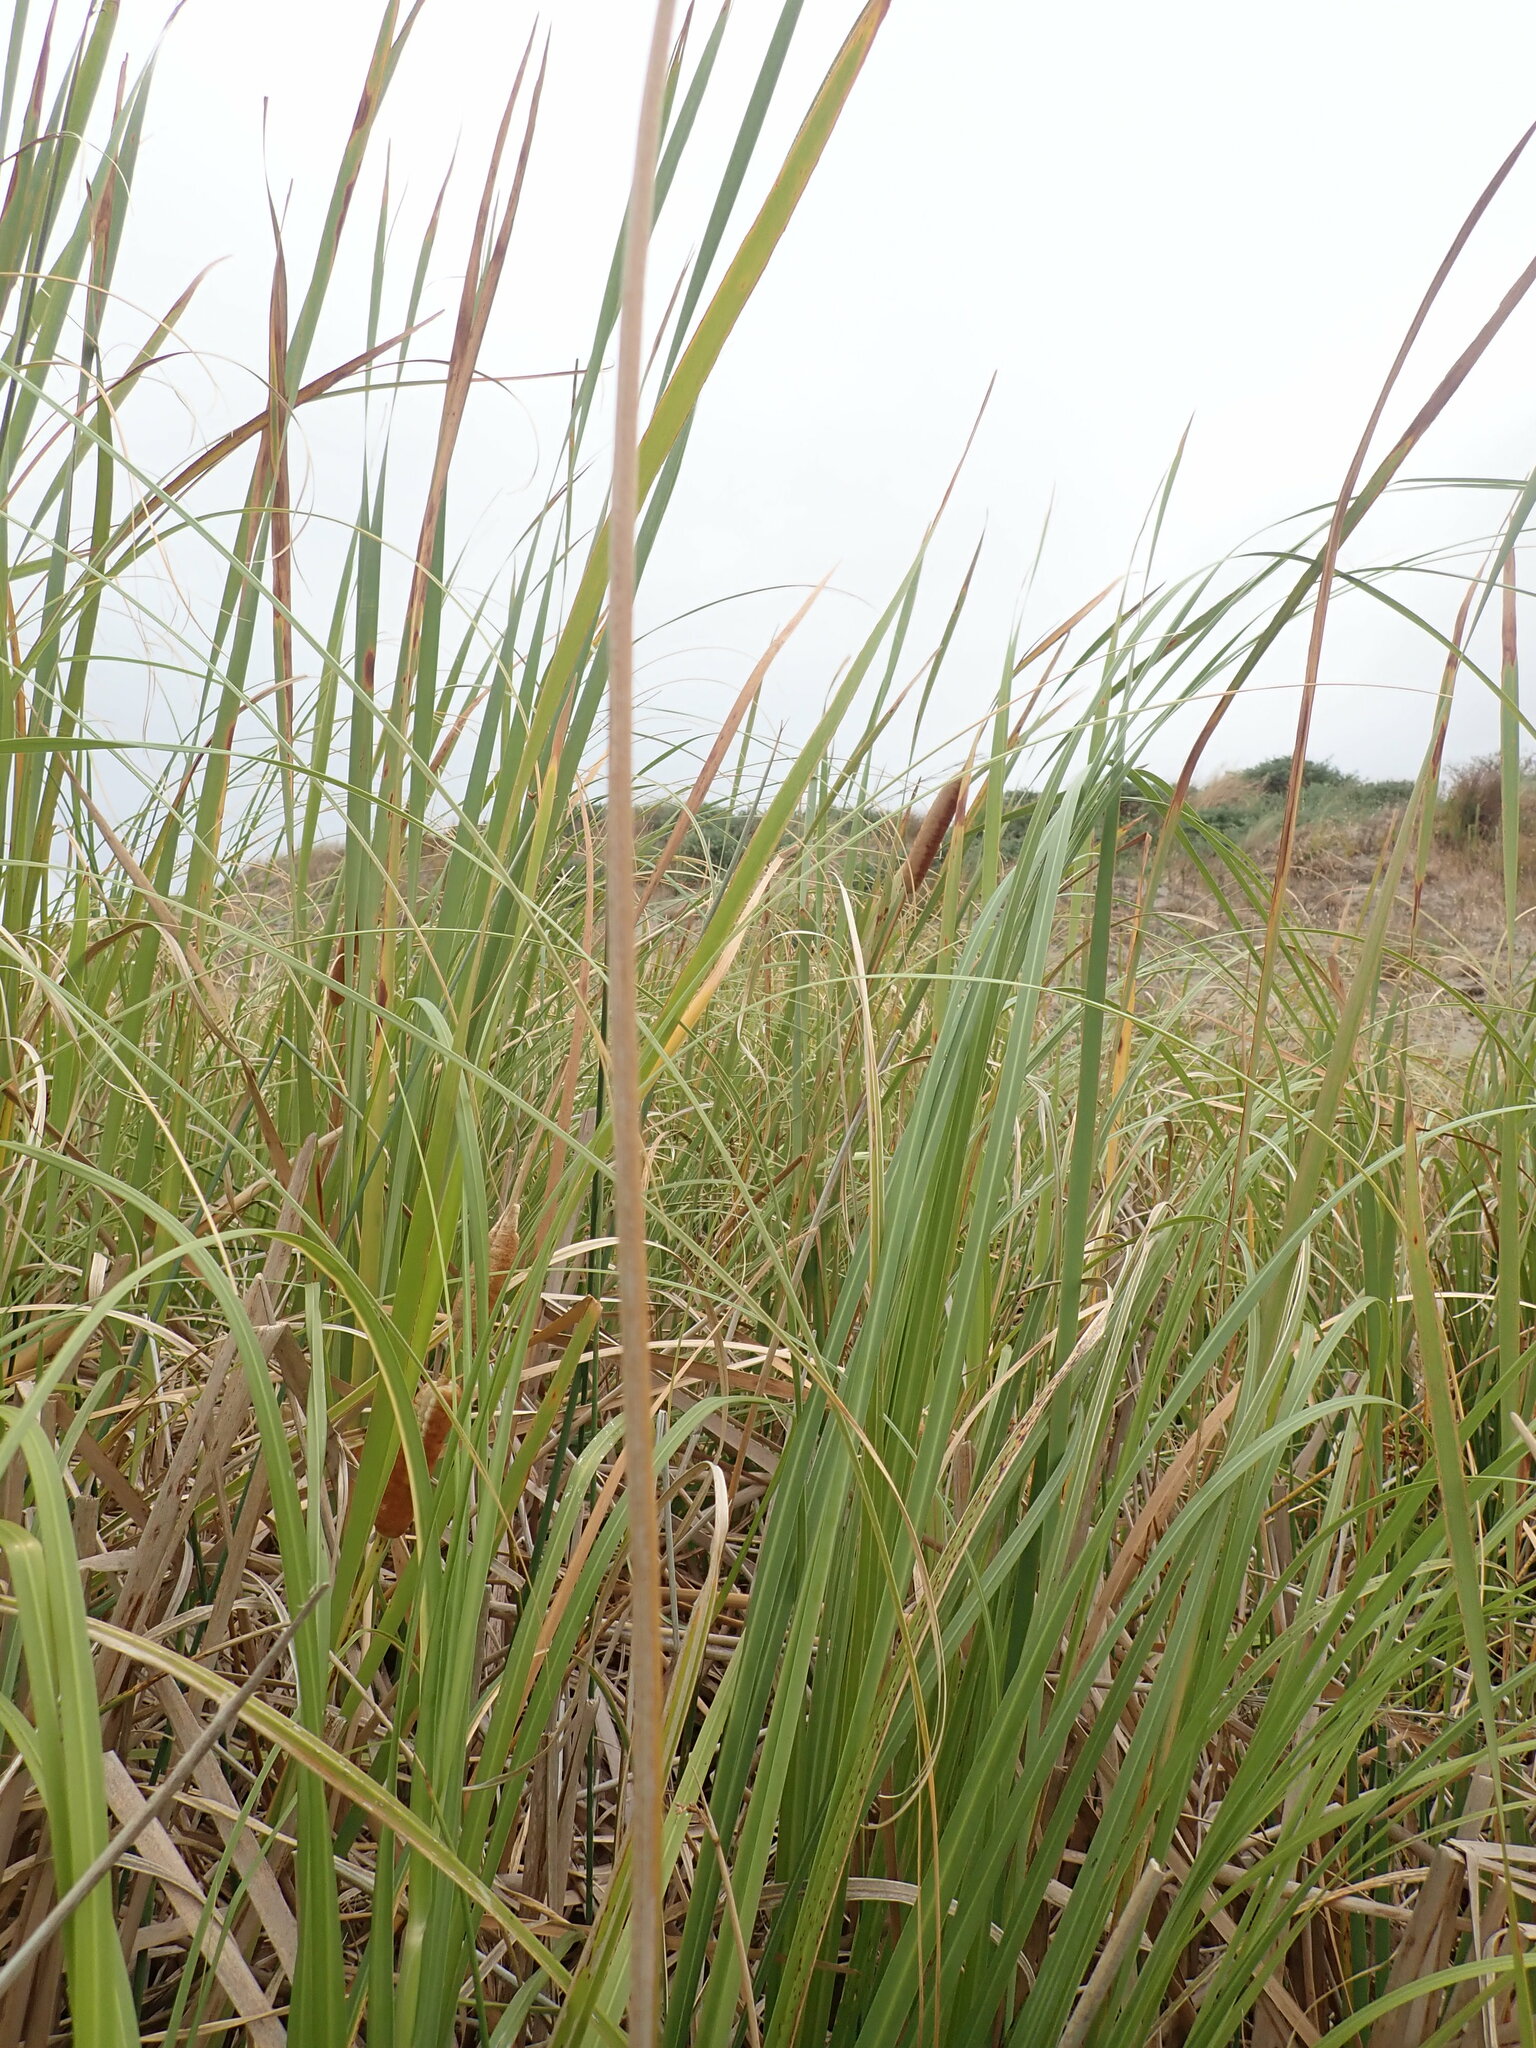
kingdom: Plantae
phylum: Tracheophyta
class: Liliopsida
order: Poales
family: Typhaceae
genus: Typha
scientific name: Typha orientalis
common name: Bullrush
